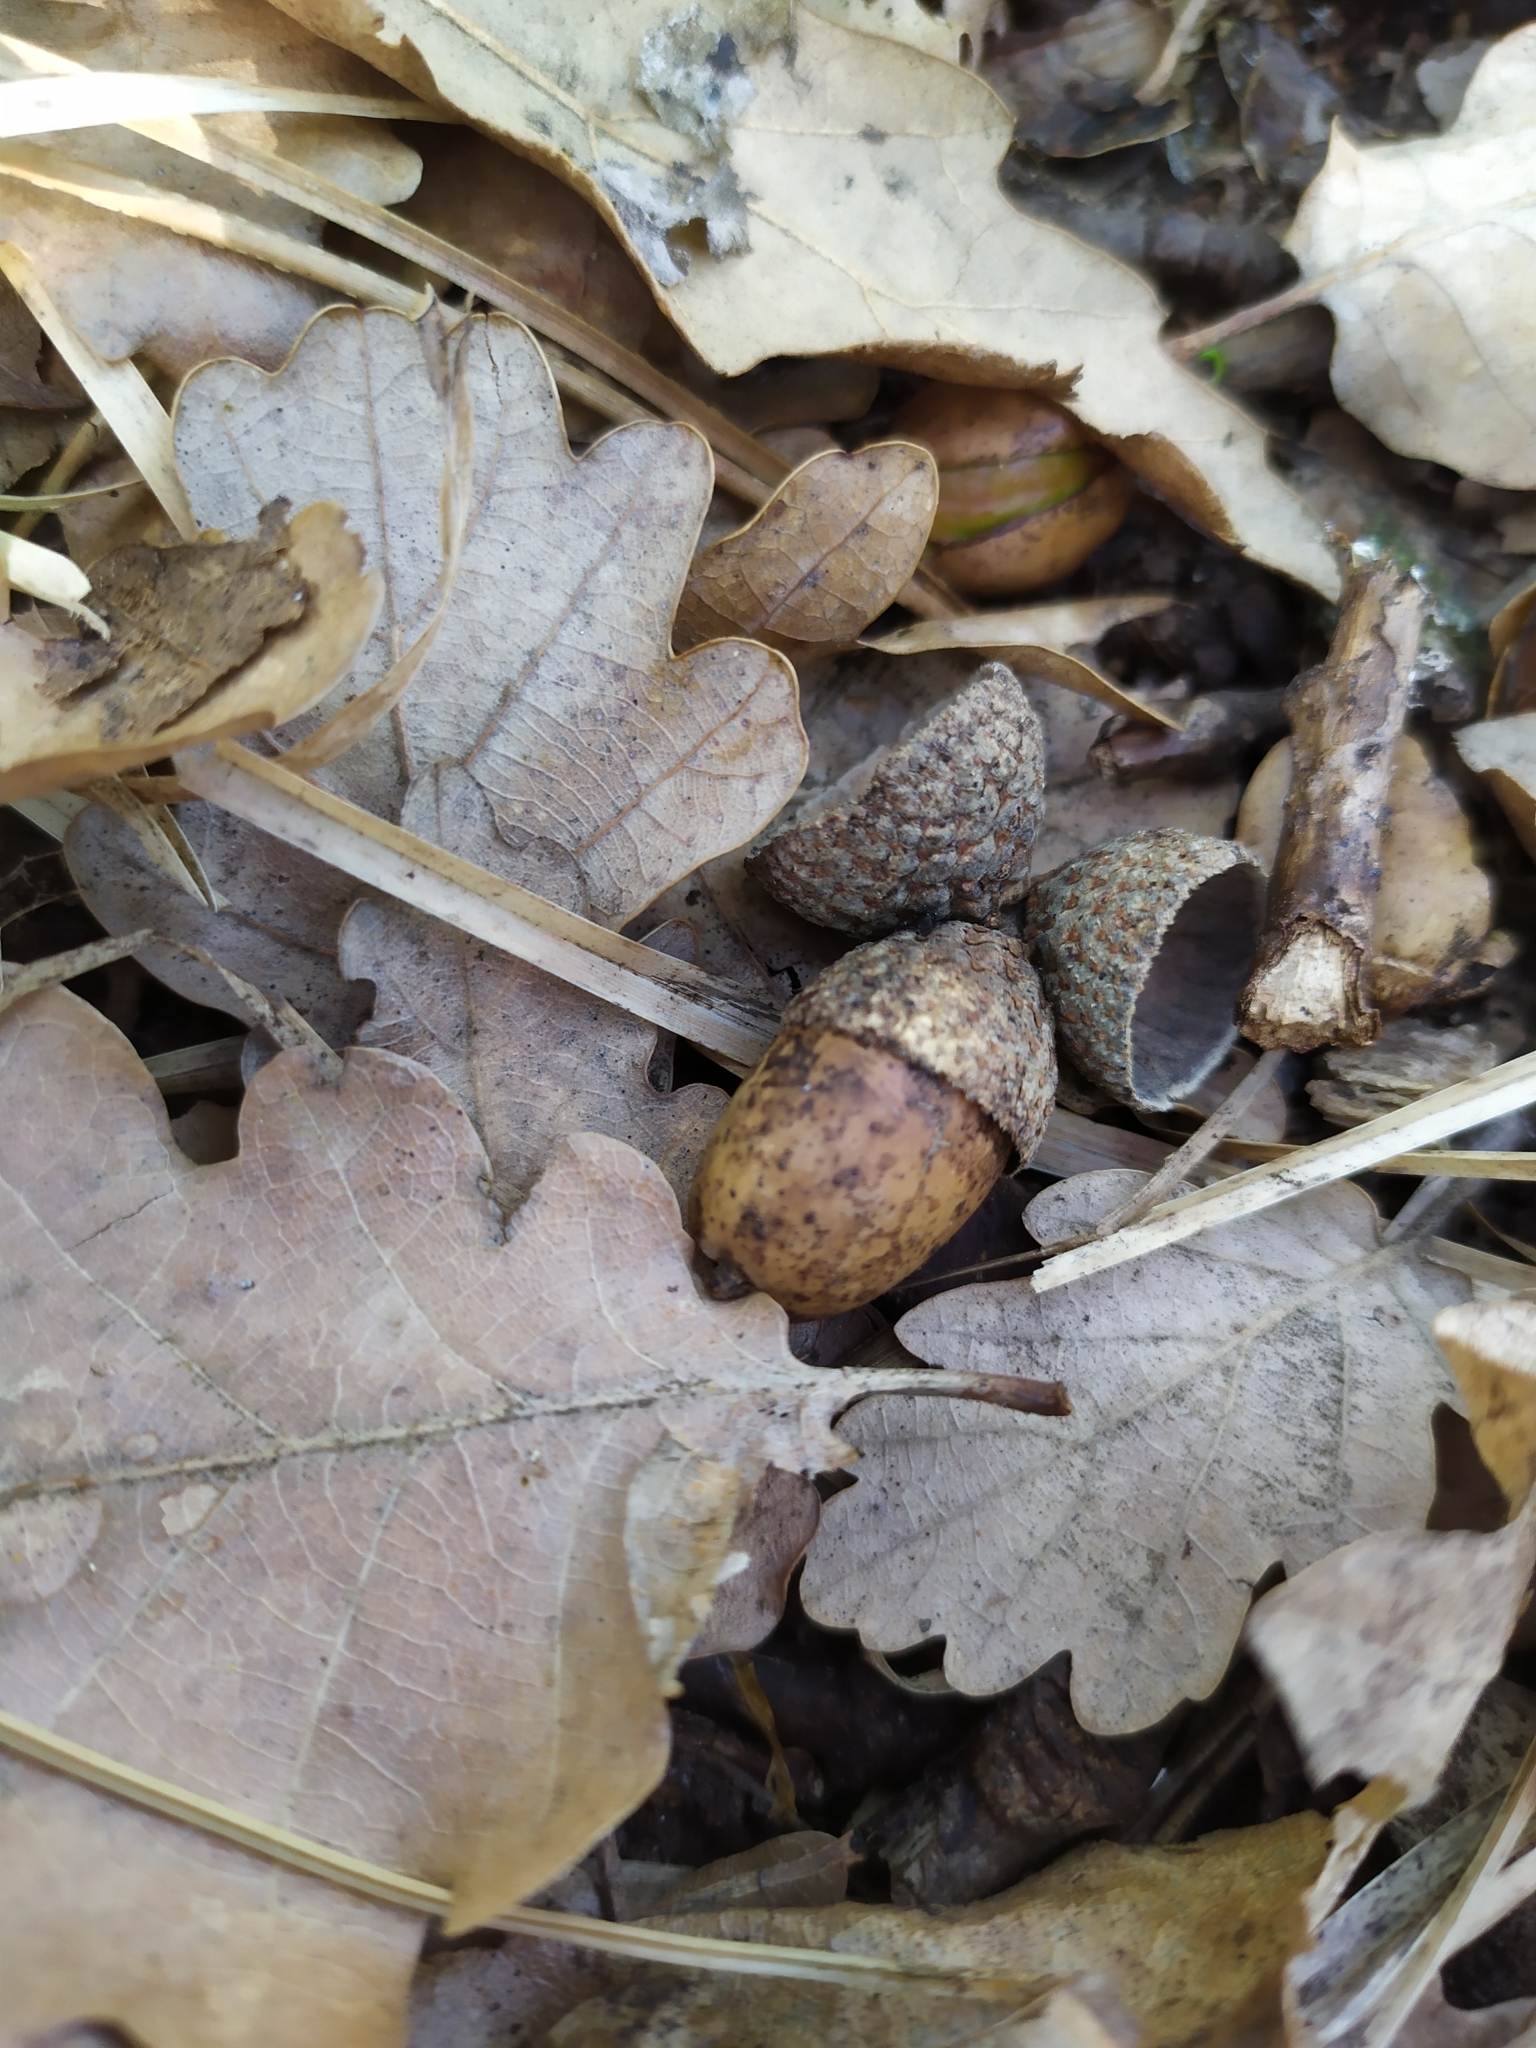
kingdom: Plantae
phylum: Tracheophyta
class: Magnoliopsida
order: Fagales
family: Fagaceae
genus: Quercus
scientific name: Quercus petraea
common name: Sessile oak
